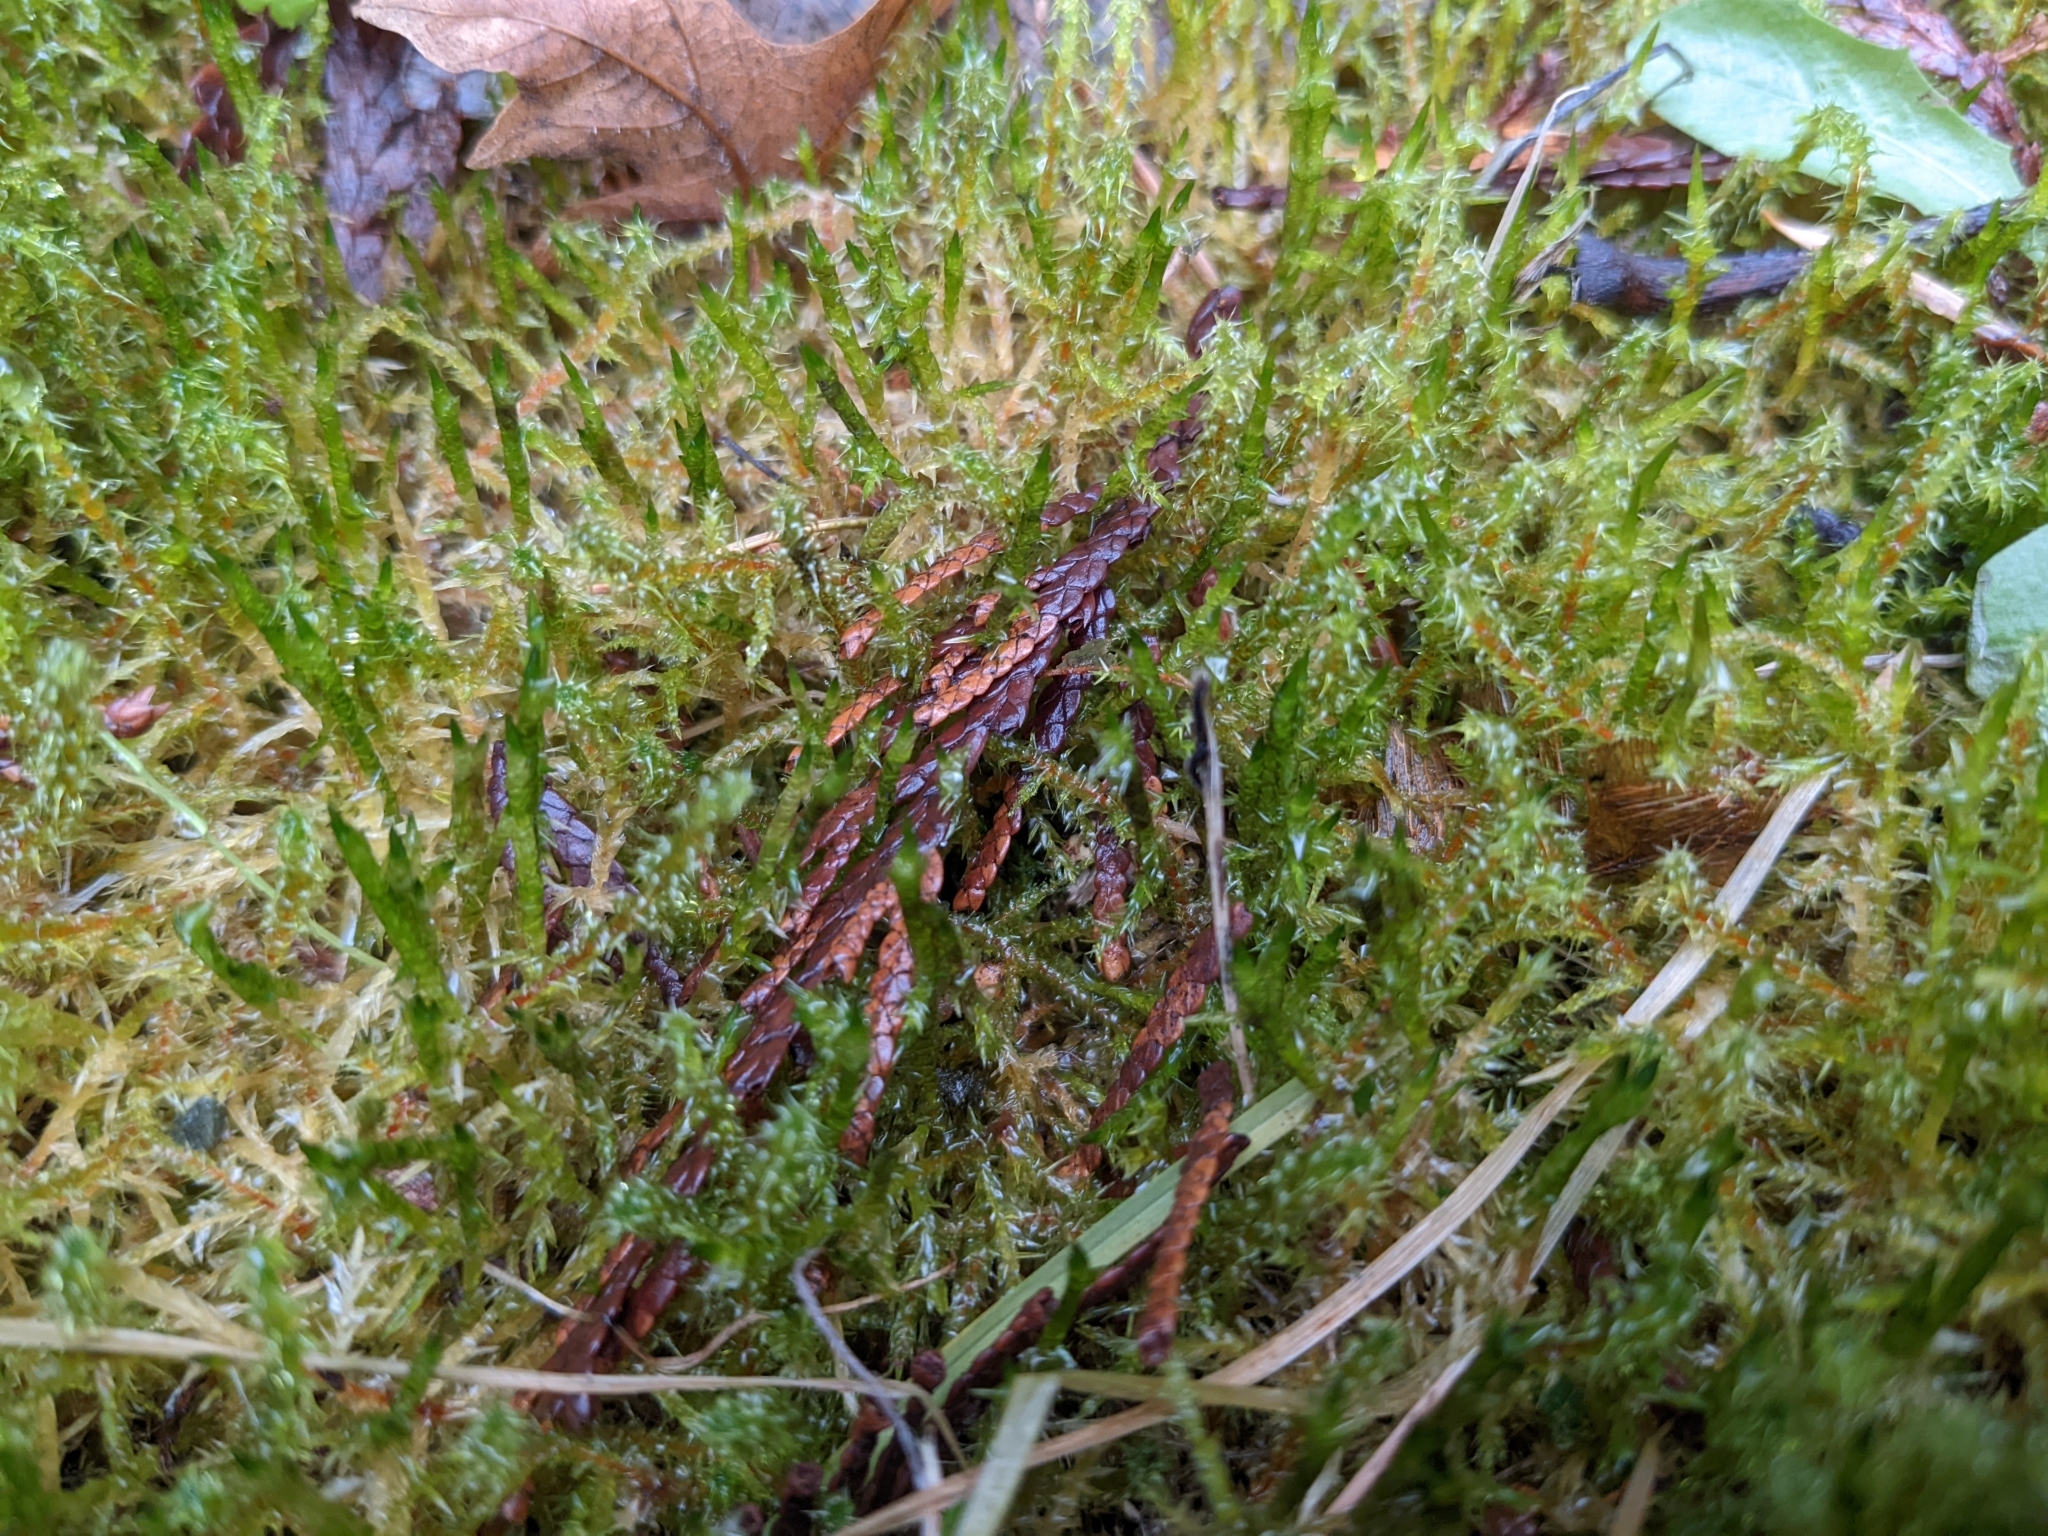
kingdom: Plantae
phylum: Bryophyta
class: Bryopsida
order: Hypnales
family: Hylocomiaceae
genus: Rhytidiadelphus
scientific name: Rhytidiadelphus squarrosus
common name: Springy turf-moss
